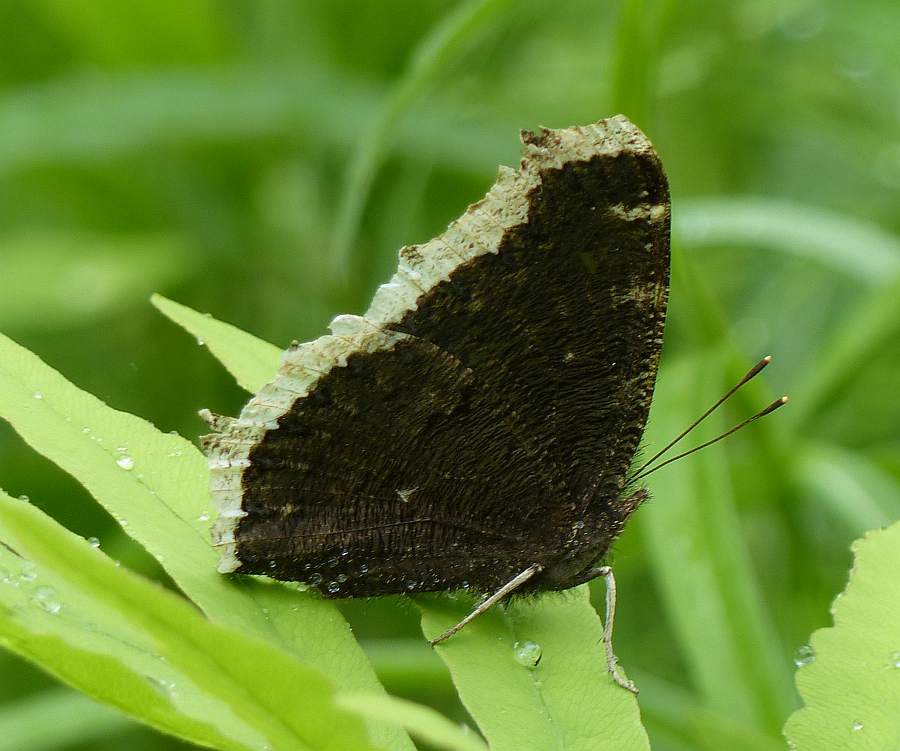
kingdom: Animalia
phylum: Arthropoda
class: Insecta
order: Lepidoptera
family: Nymphalidae
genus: Nymphalis
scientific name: Nymphalis antiopa
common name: Camberwell beauty
